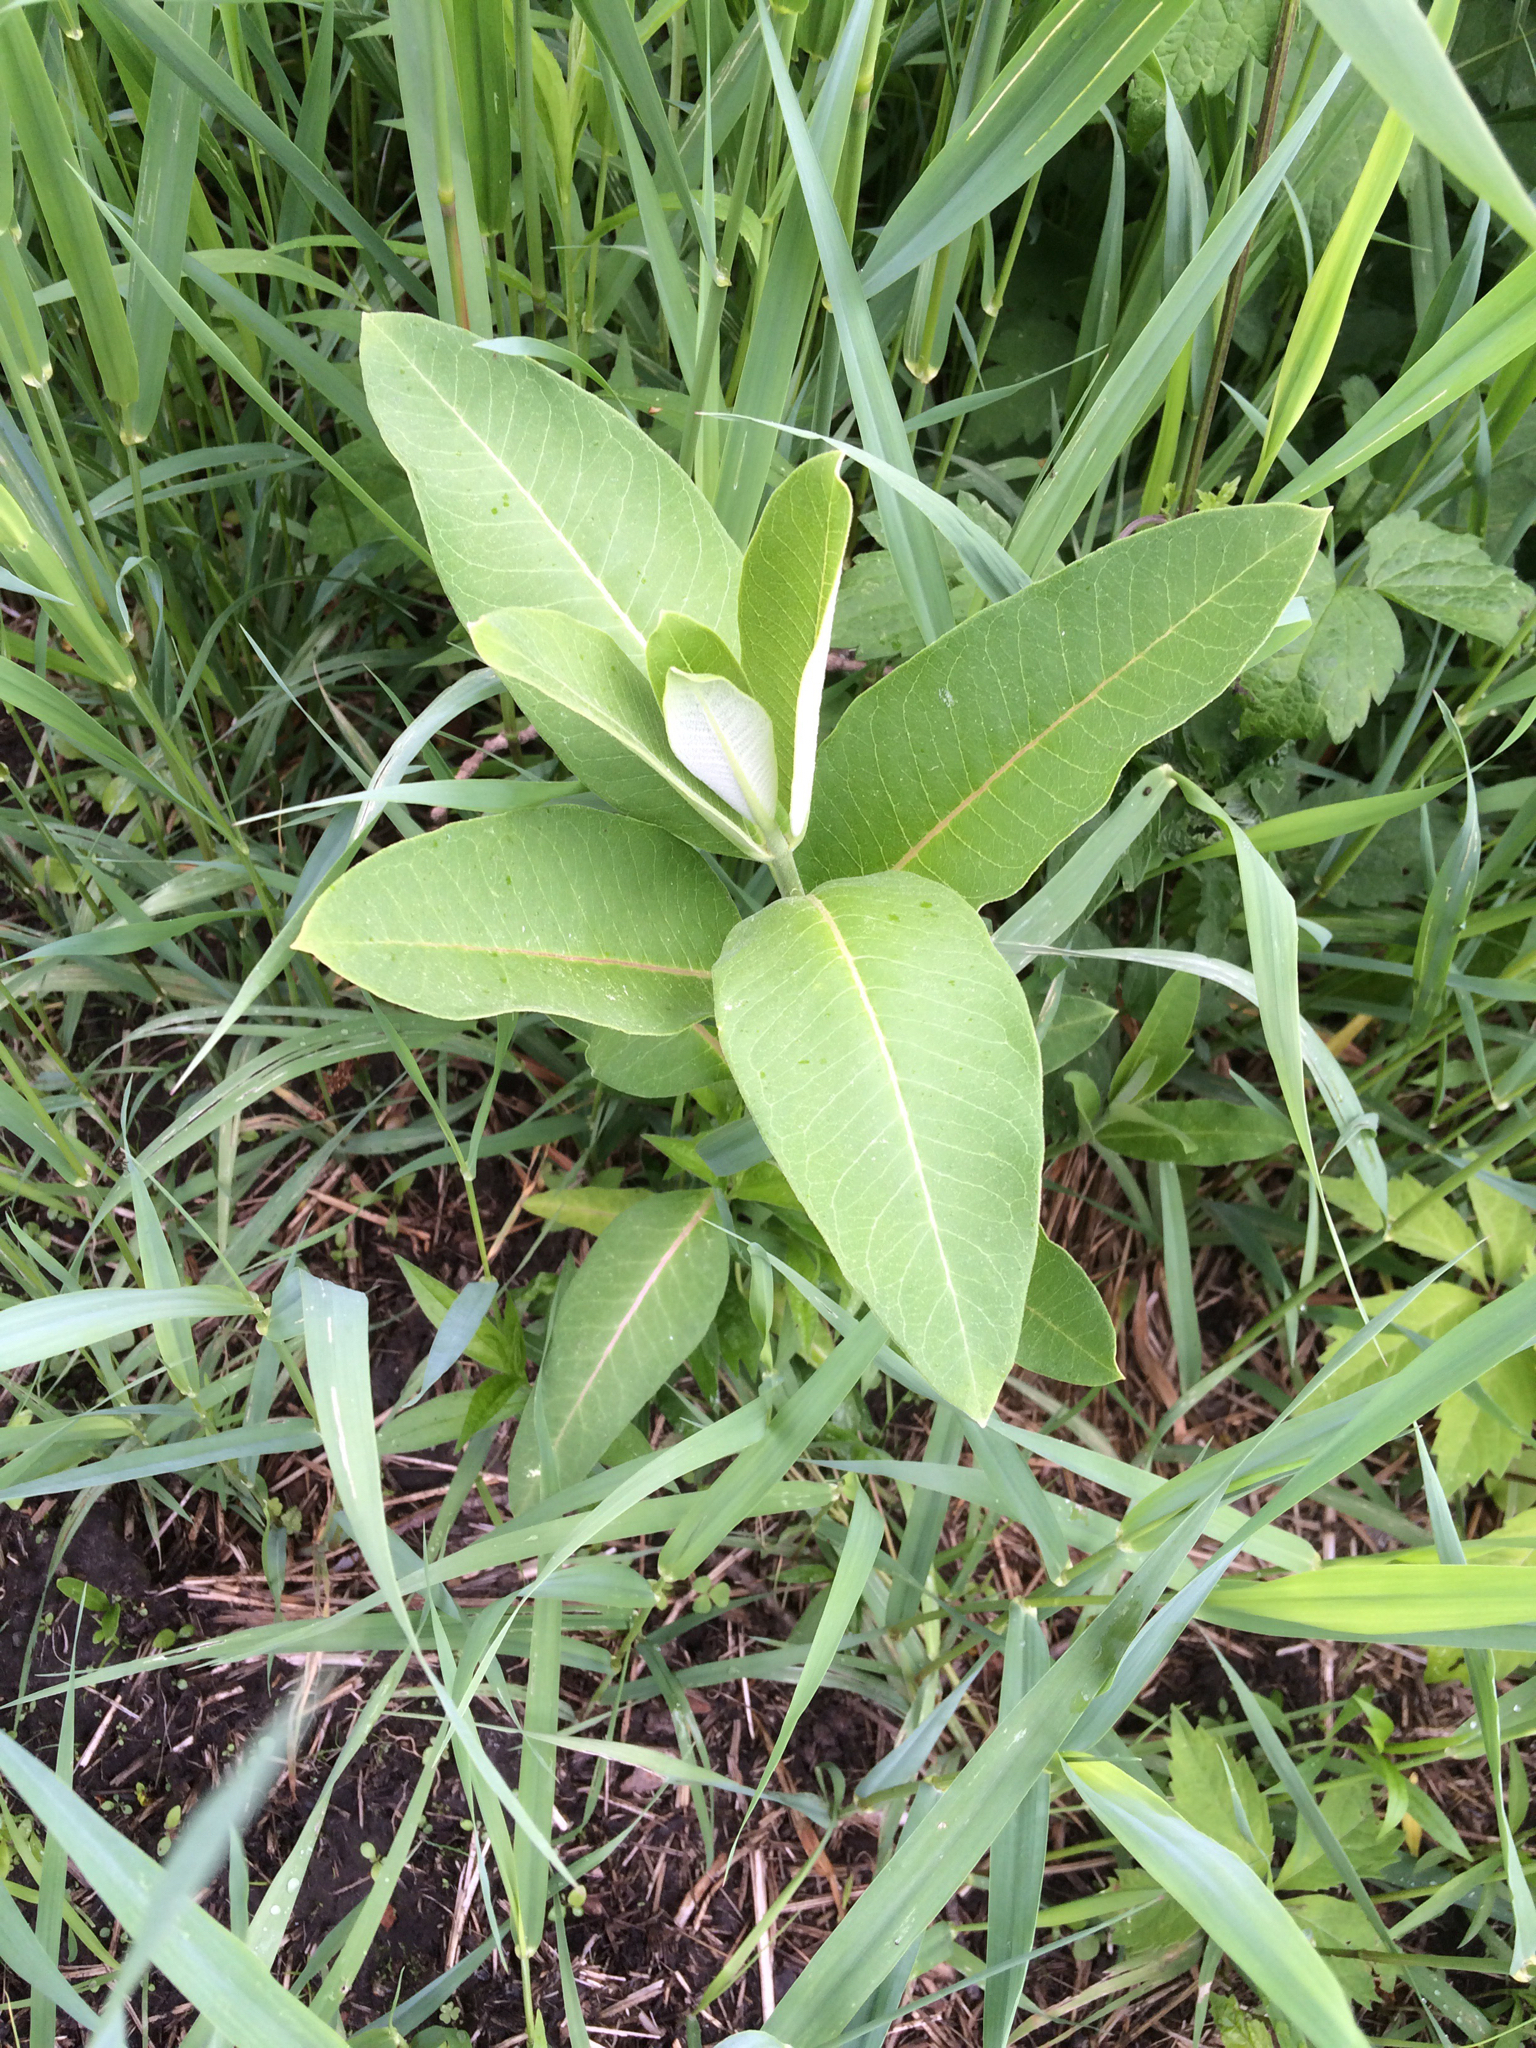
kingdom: Plantae
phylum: Tracheophyta
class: Magnoliopsida
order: Gentianales
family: Apocynaceae
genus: Asclepias
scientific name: Asclepias syriaca
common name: Common milkweed
